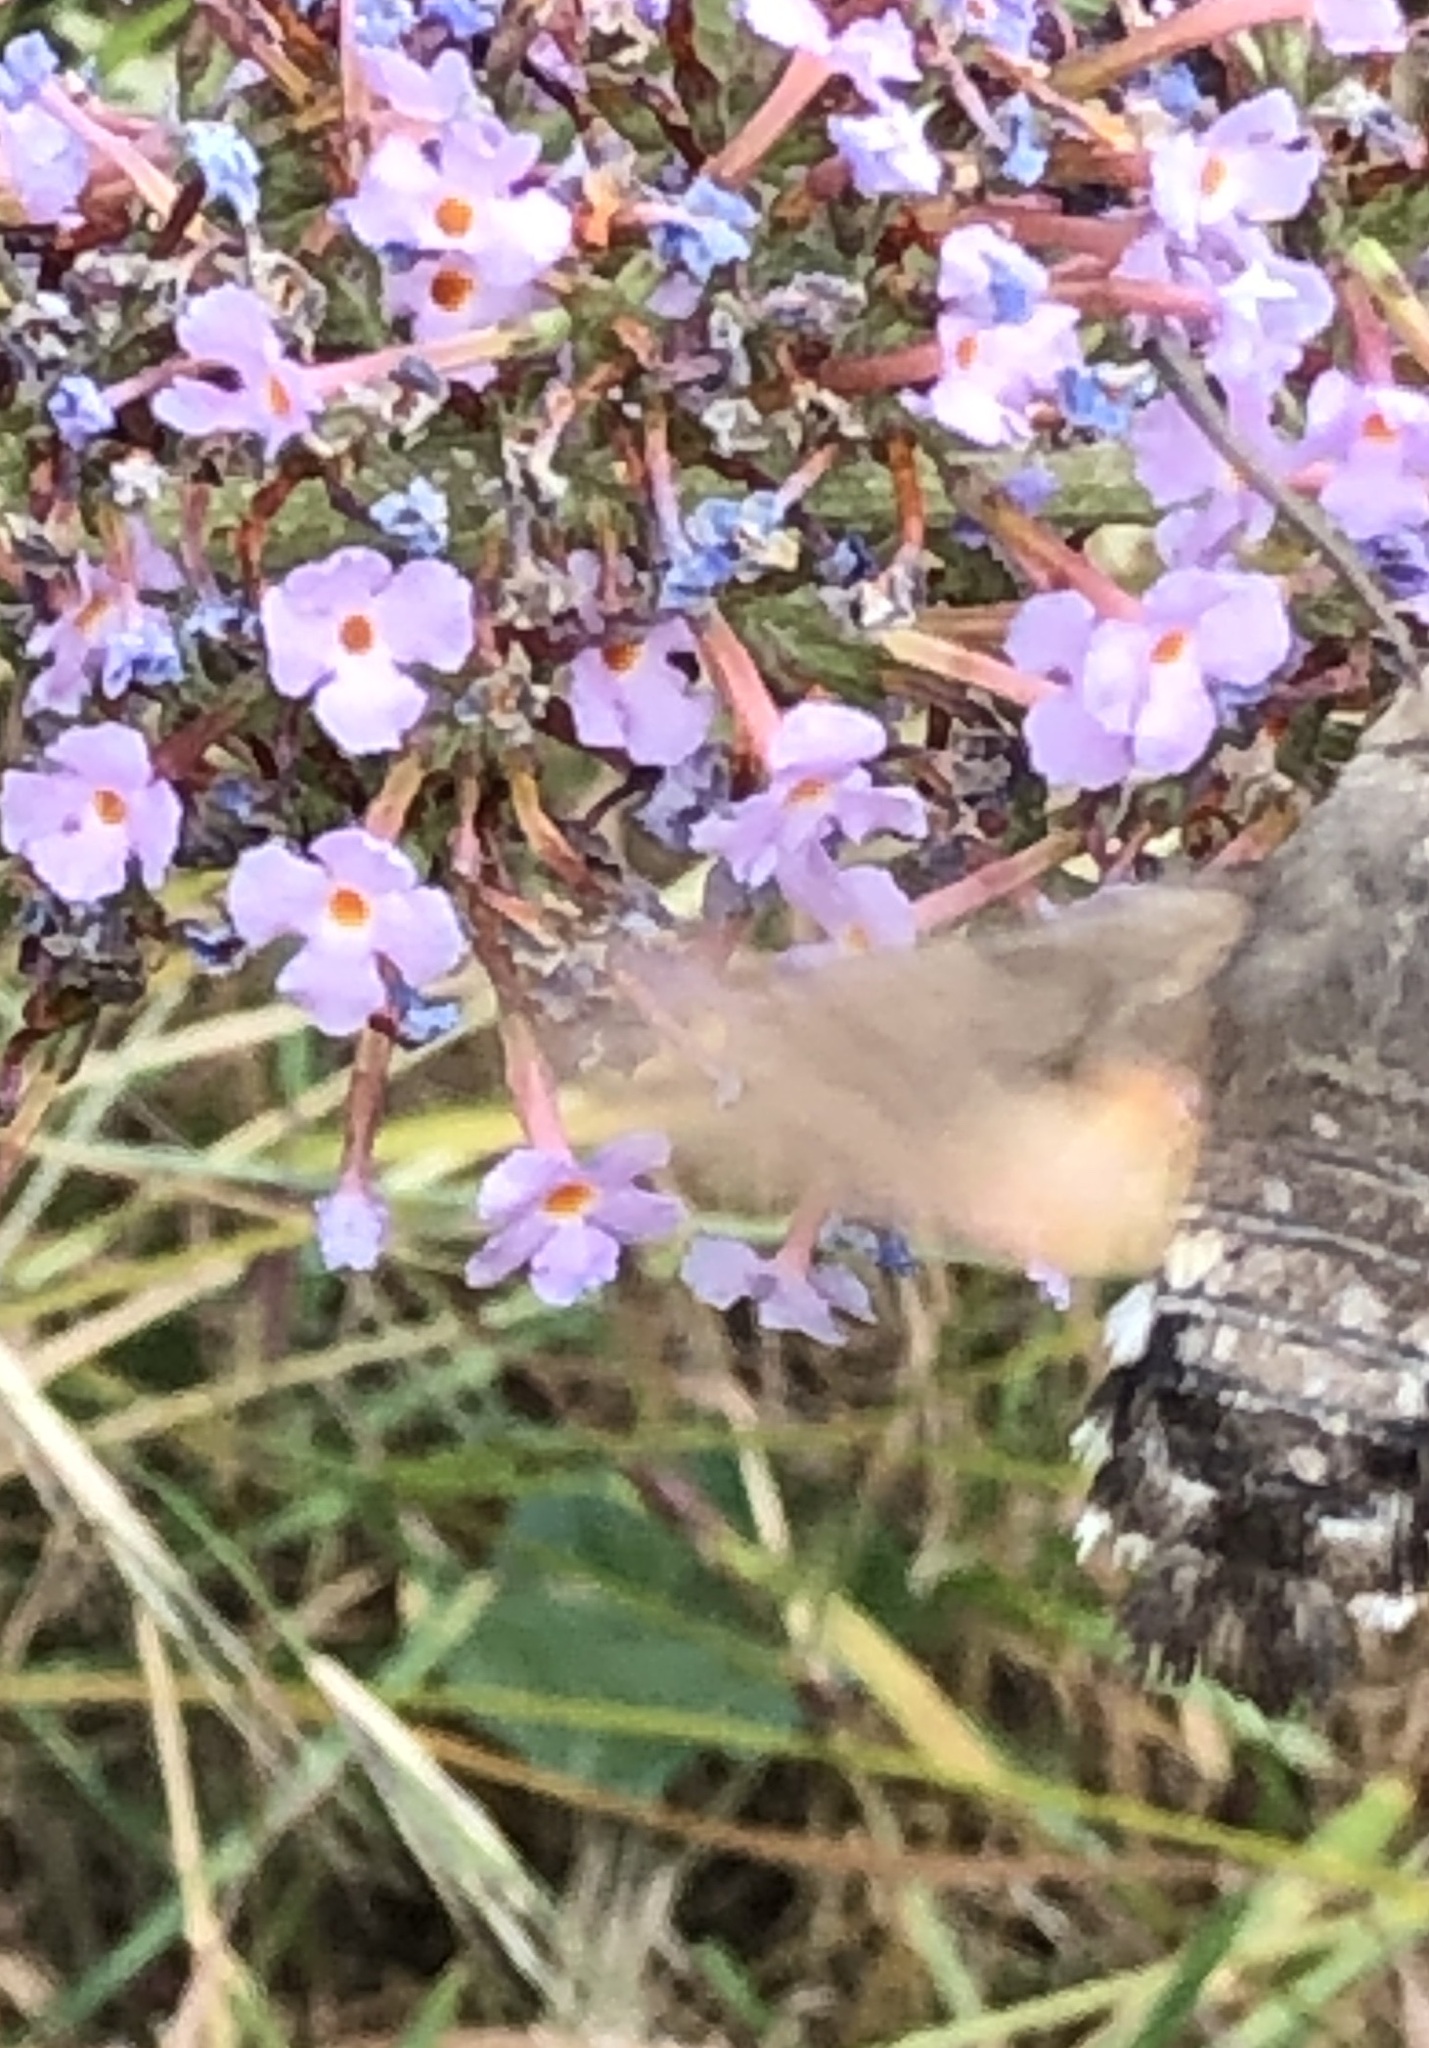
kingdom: Animalia
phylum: Arthropoda
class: Insecta
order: Lepidoptera
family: Sphingidae
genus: Macroglossum
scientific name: Macroglossum stellatarum
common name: Humming-bird hawk-moth
